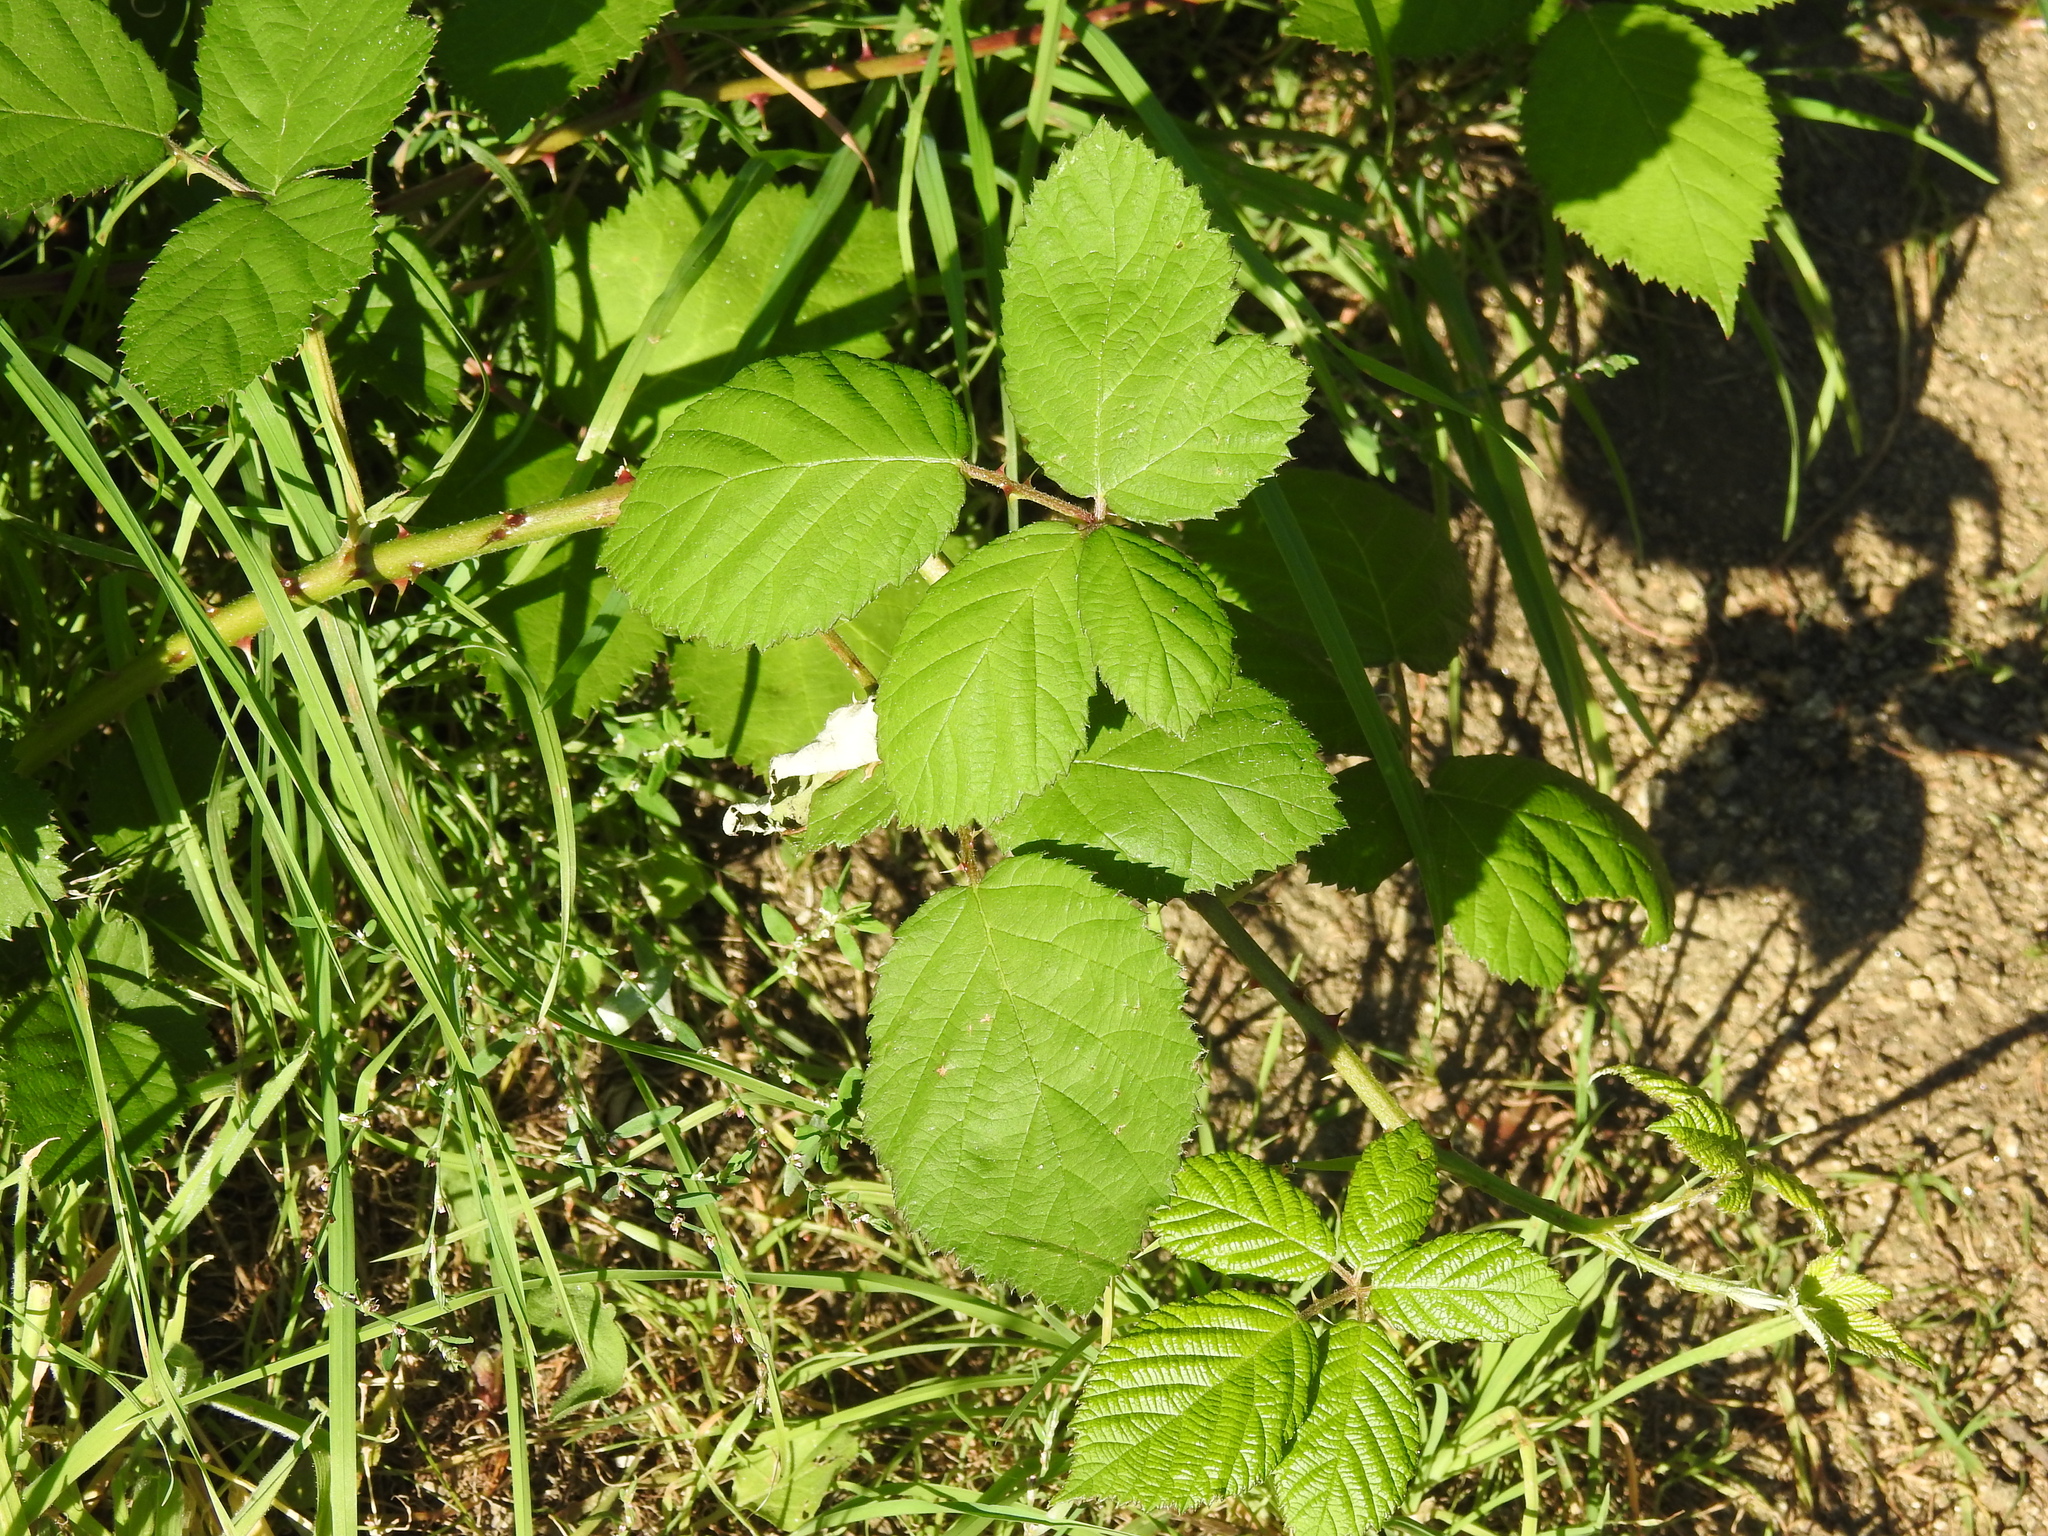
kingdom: Plantae
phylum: Tracheophyta
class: Magnoliopsida
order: Rosales
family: Rosaceae
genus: Rubus
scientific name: Rubus caesius
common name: Dewberry
